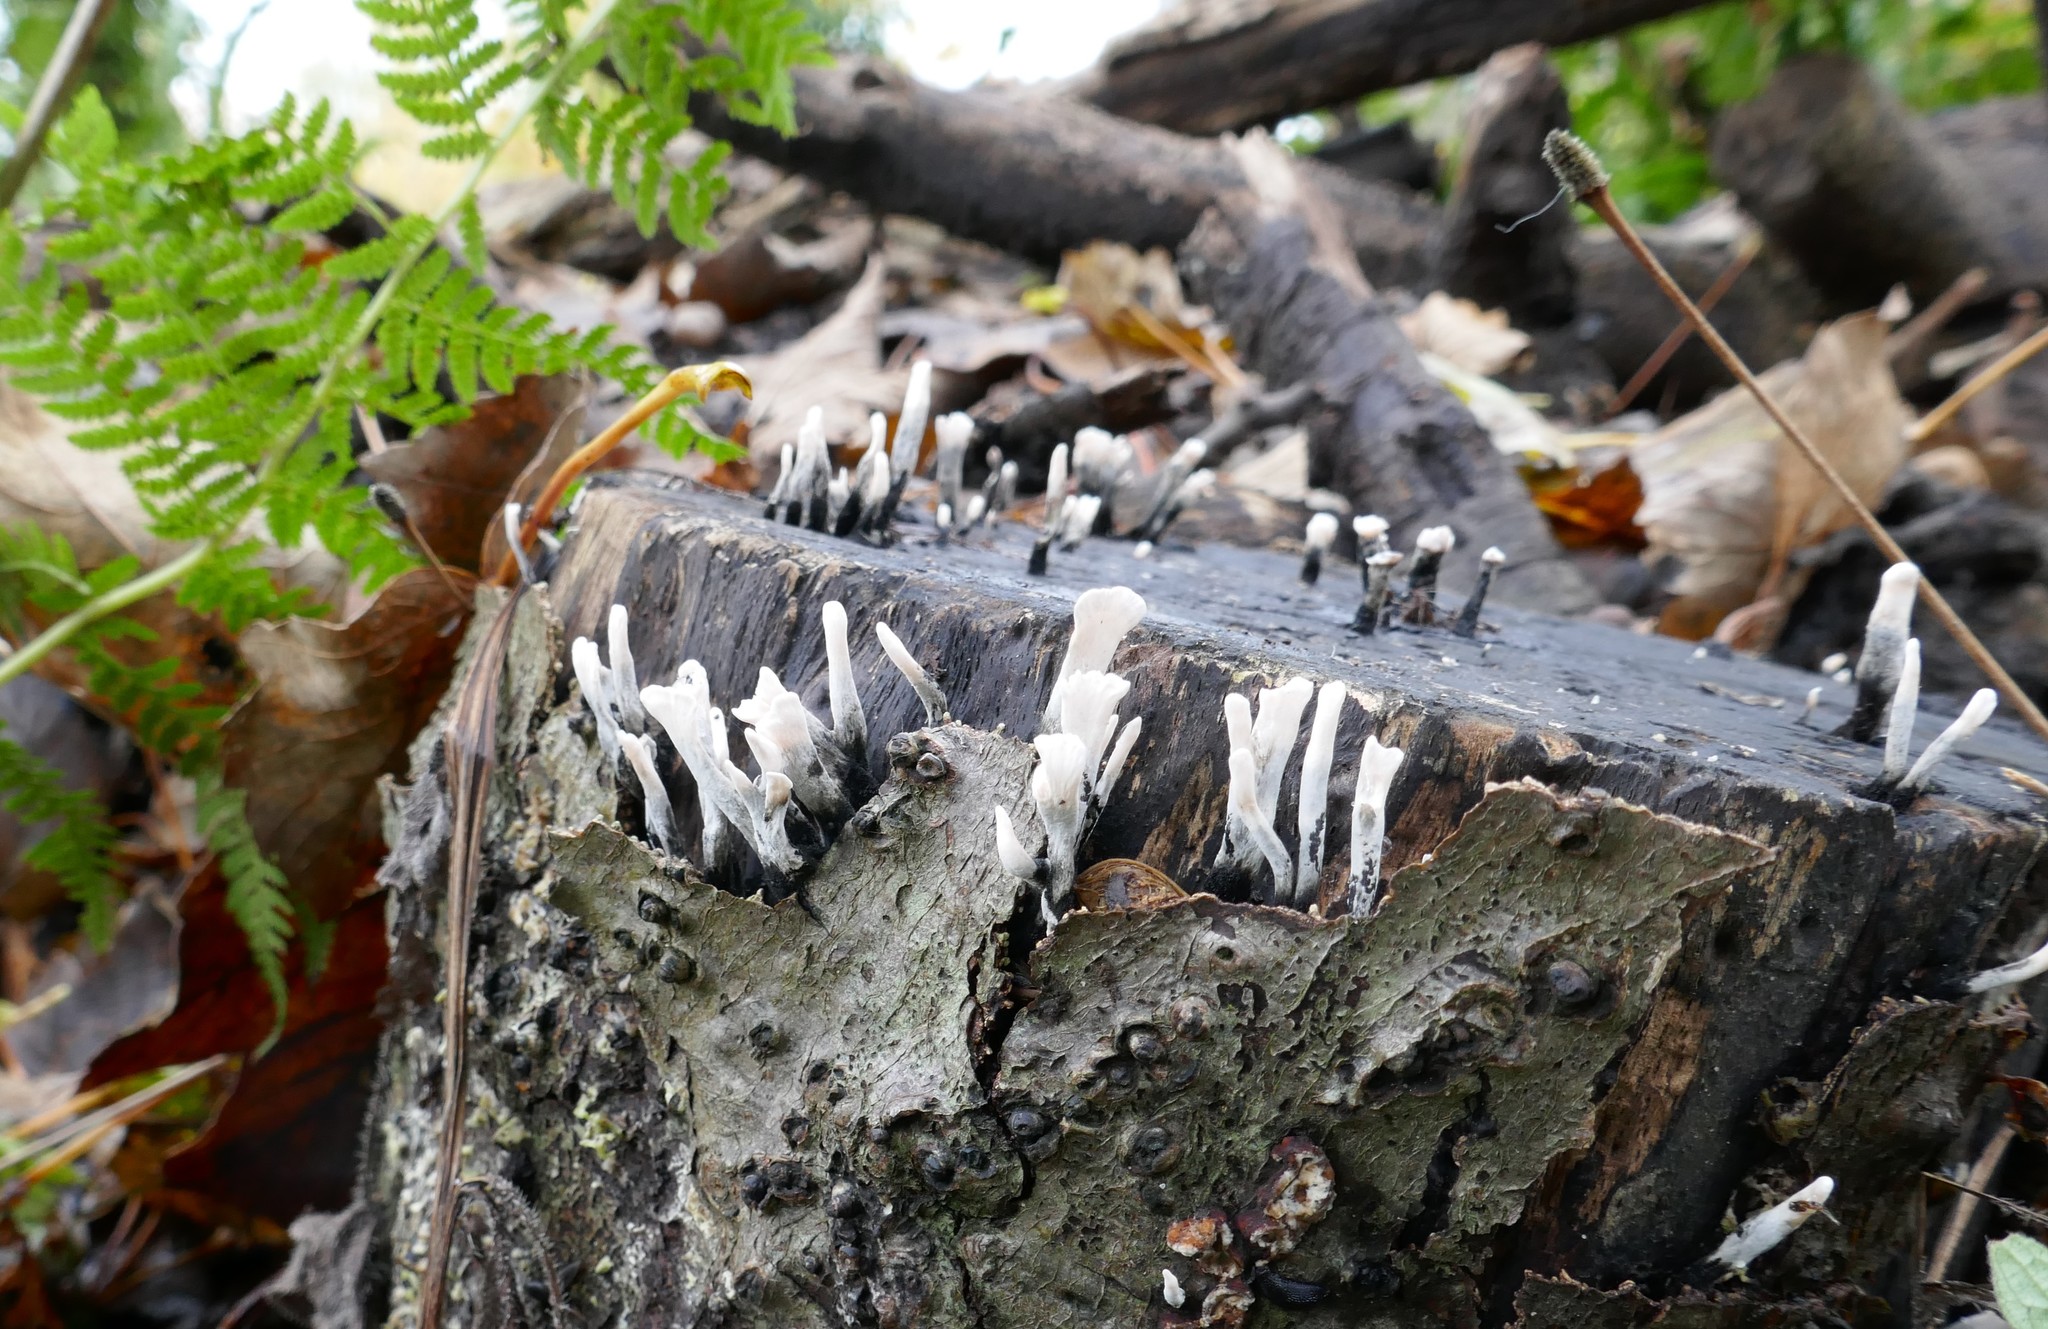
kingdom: Fungi
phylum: Ascomycota
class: Sordariomycetes
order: Xylariales
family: Xylariaceae
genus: Xylaria
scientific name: Xylaria hypoxylon
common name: Candle-snuff fungus
